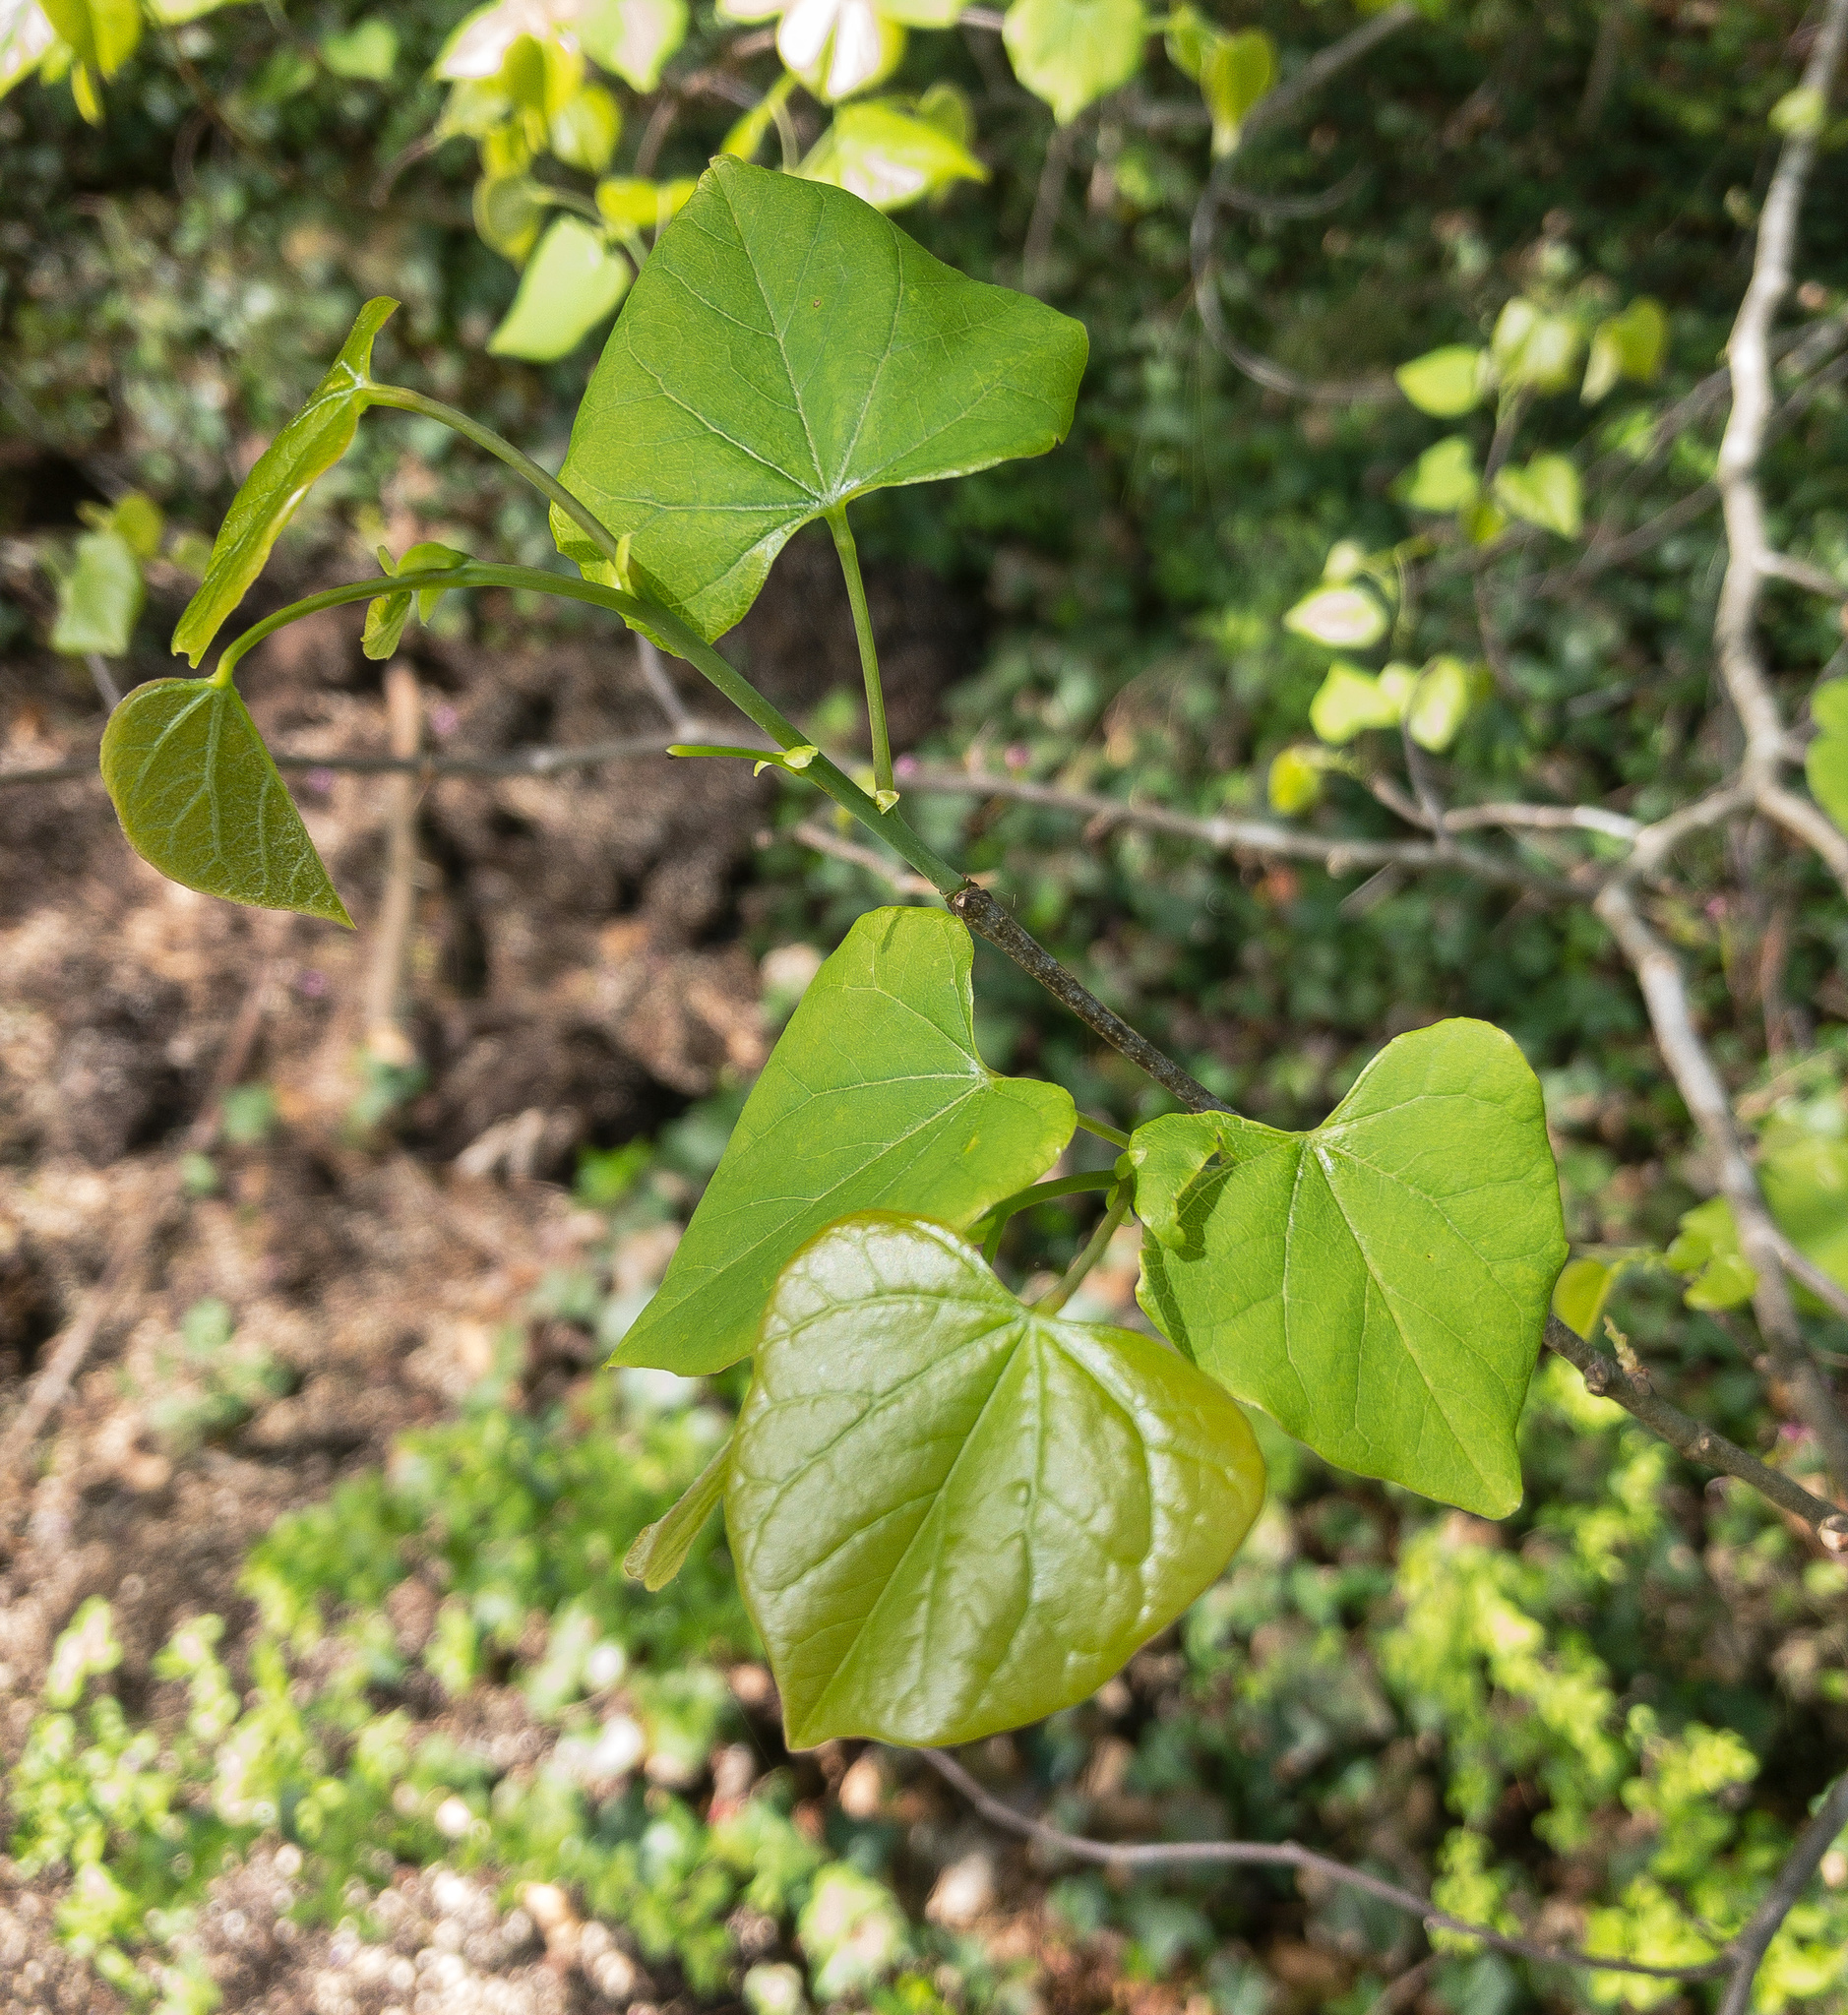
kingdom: Plantae
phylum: Tracheophyta
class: Magnoliopsida
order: Fabales
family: Fabaceae
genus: Cercis
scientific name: Cercis canadensis
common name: Eastern redbud
